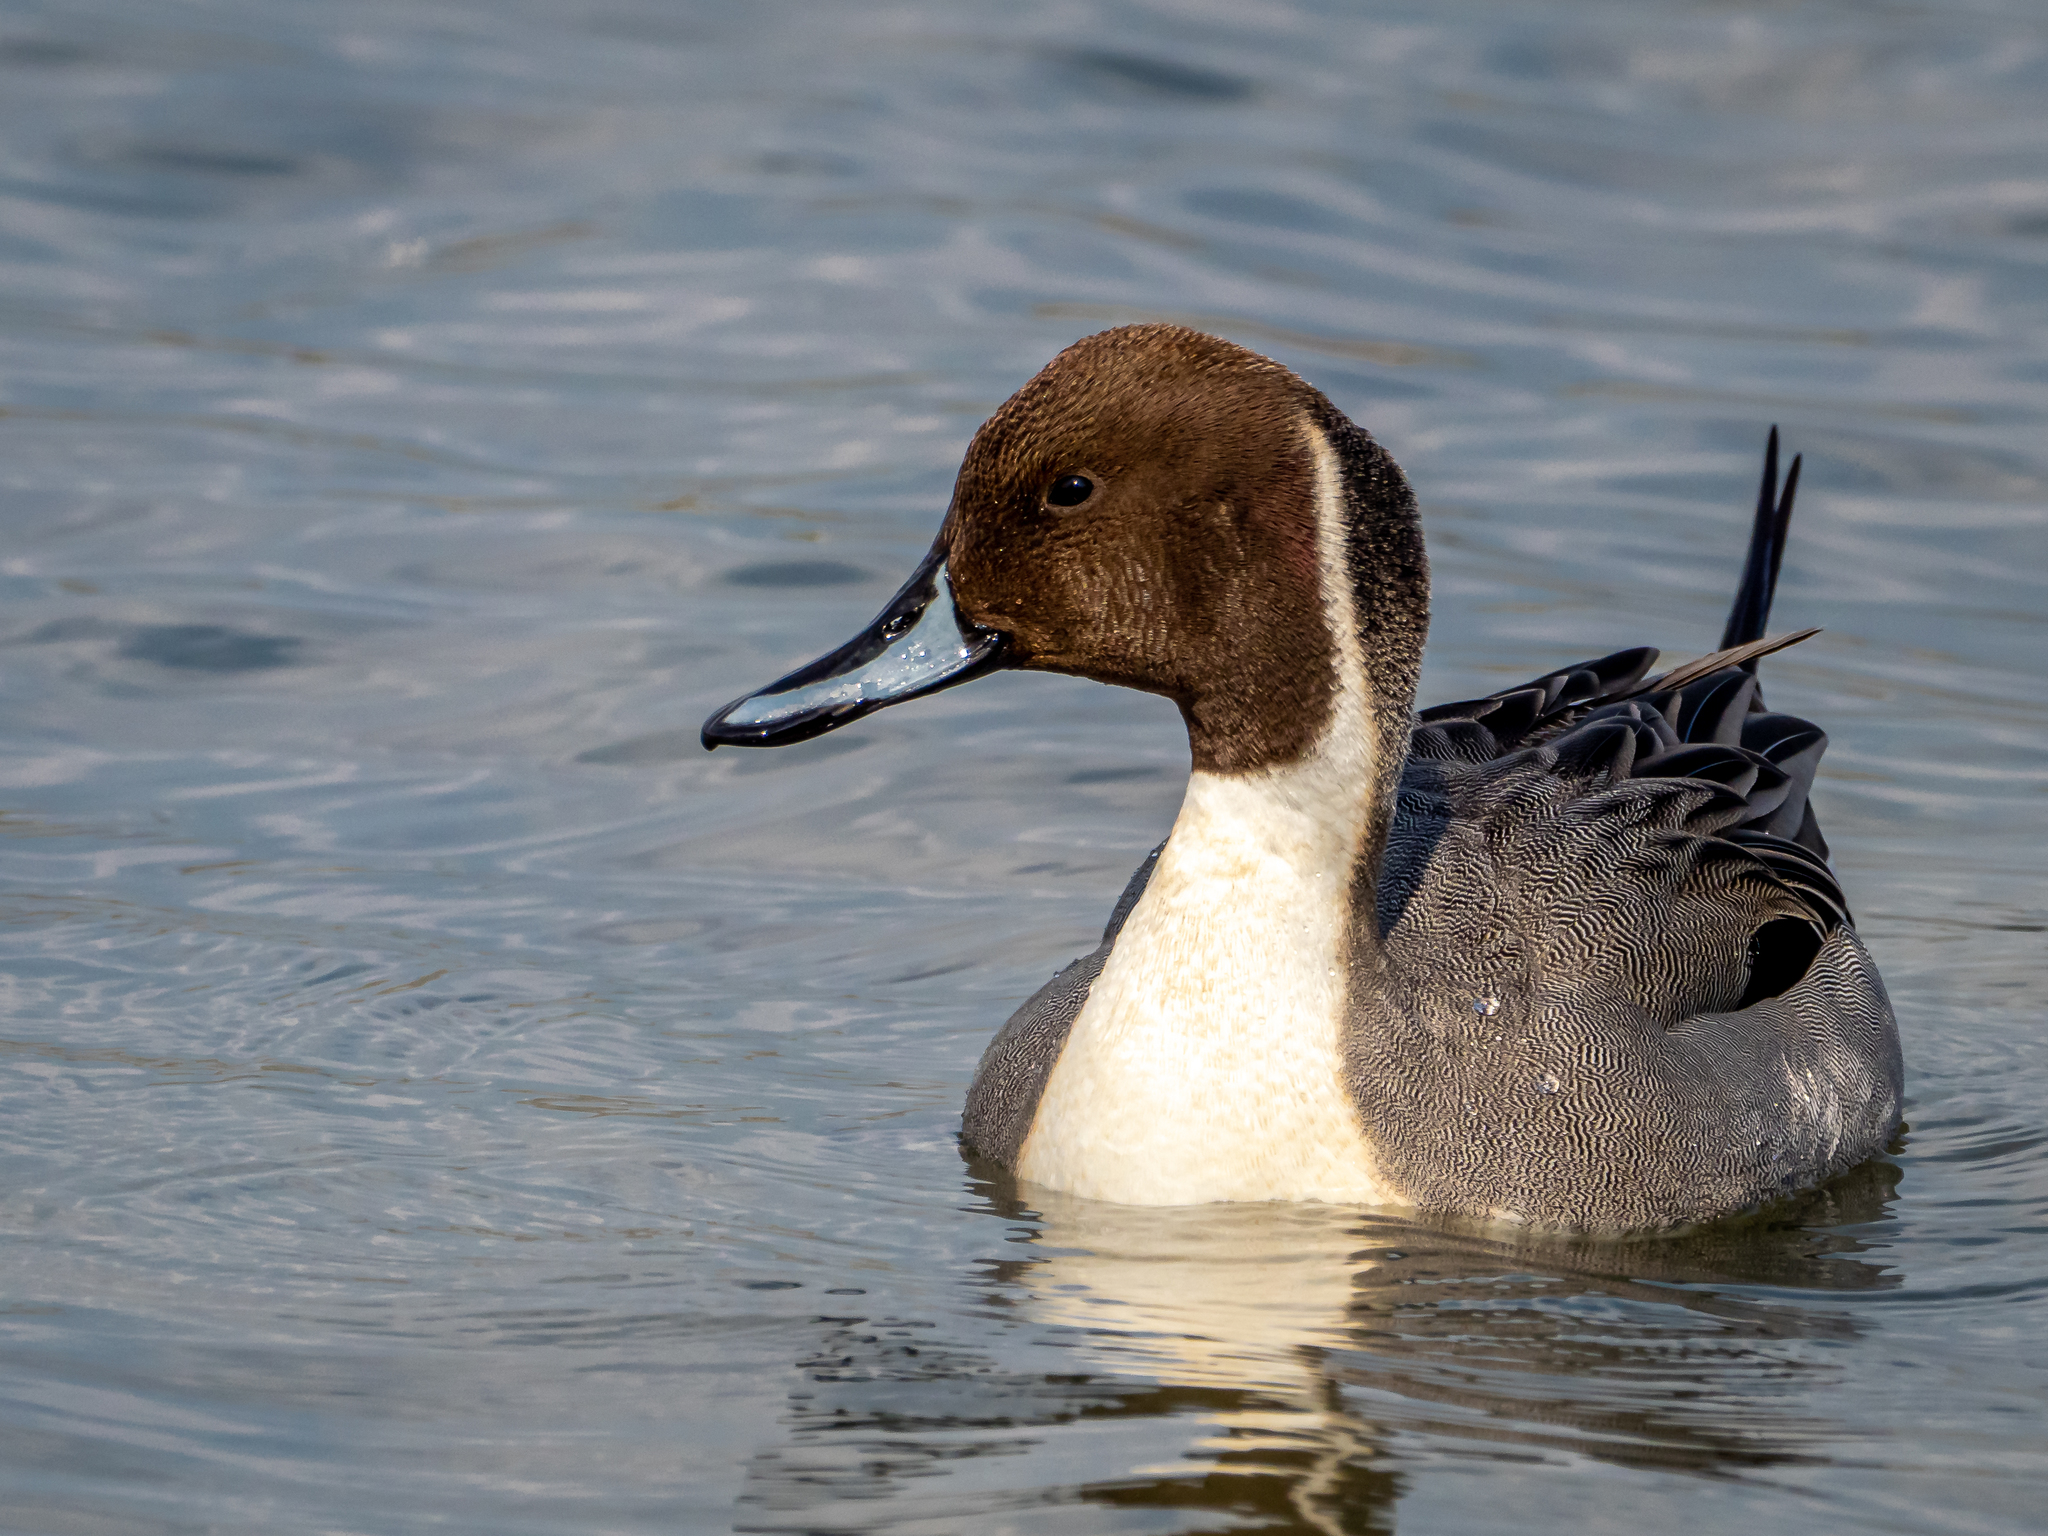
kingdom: Animalia
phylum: Chordata
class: Aves
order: Anseriformes
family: Anatidae
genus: Anas
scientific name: Anas acuta
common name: Northern pintail
